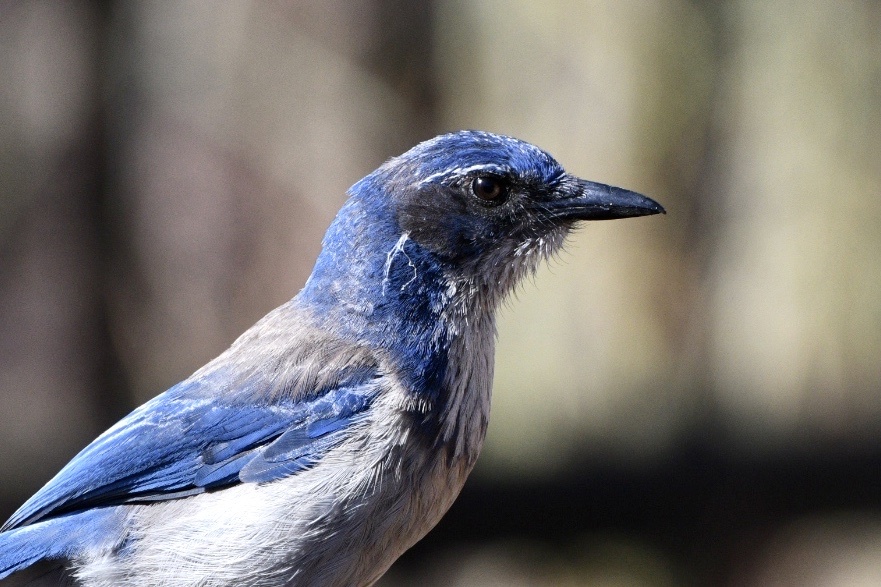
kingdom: Animalia
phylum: Chordata
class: Aves
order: Passeriformes
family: Corvidae
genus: Aphelocoma
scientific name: Aphelocoma californica
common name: California scrub-jay
